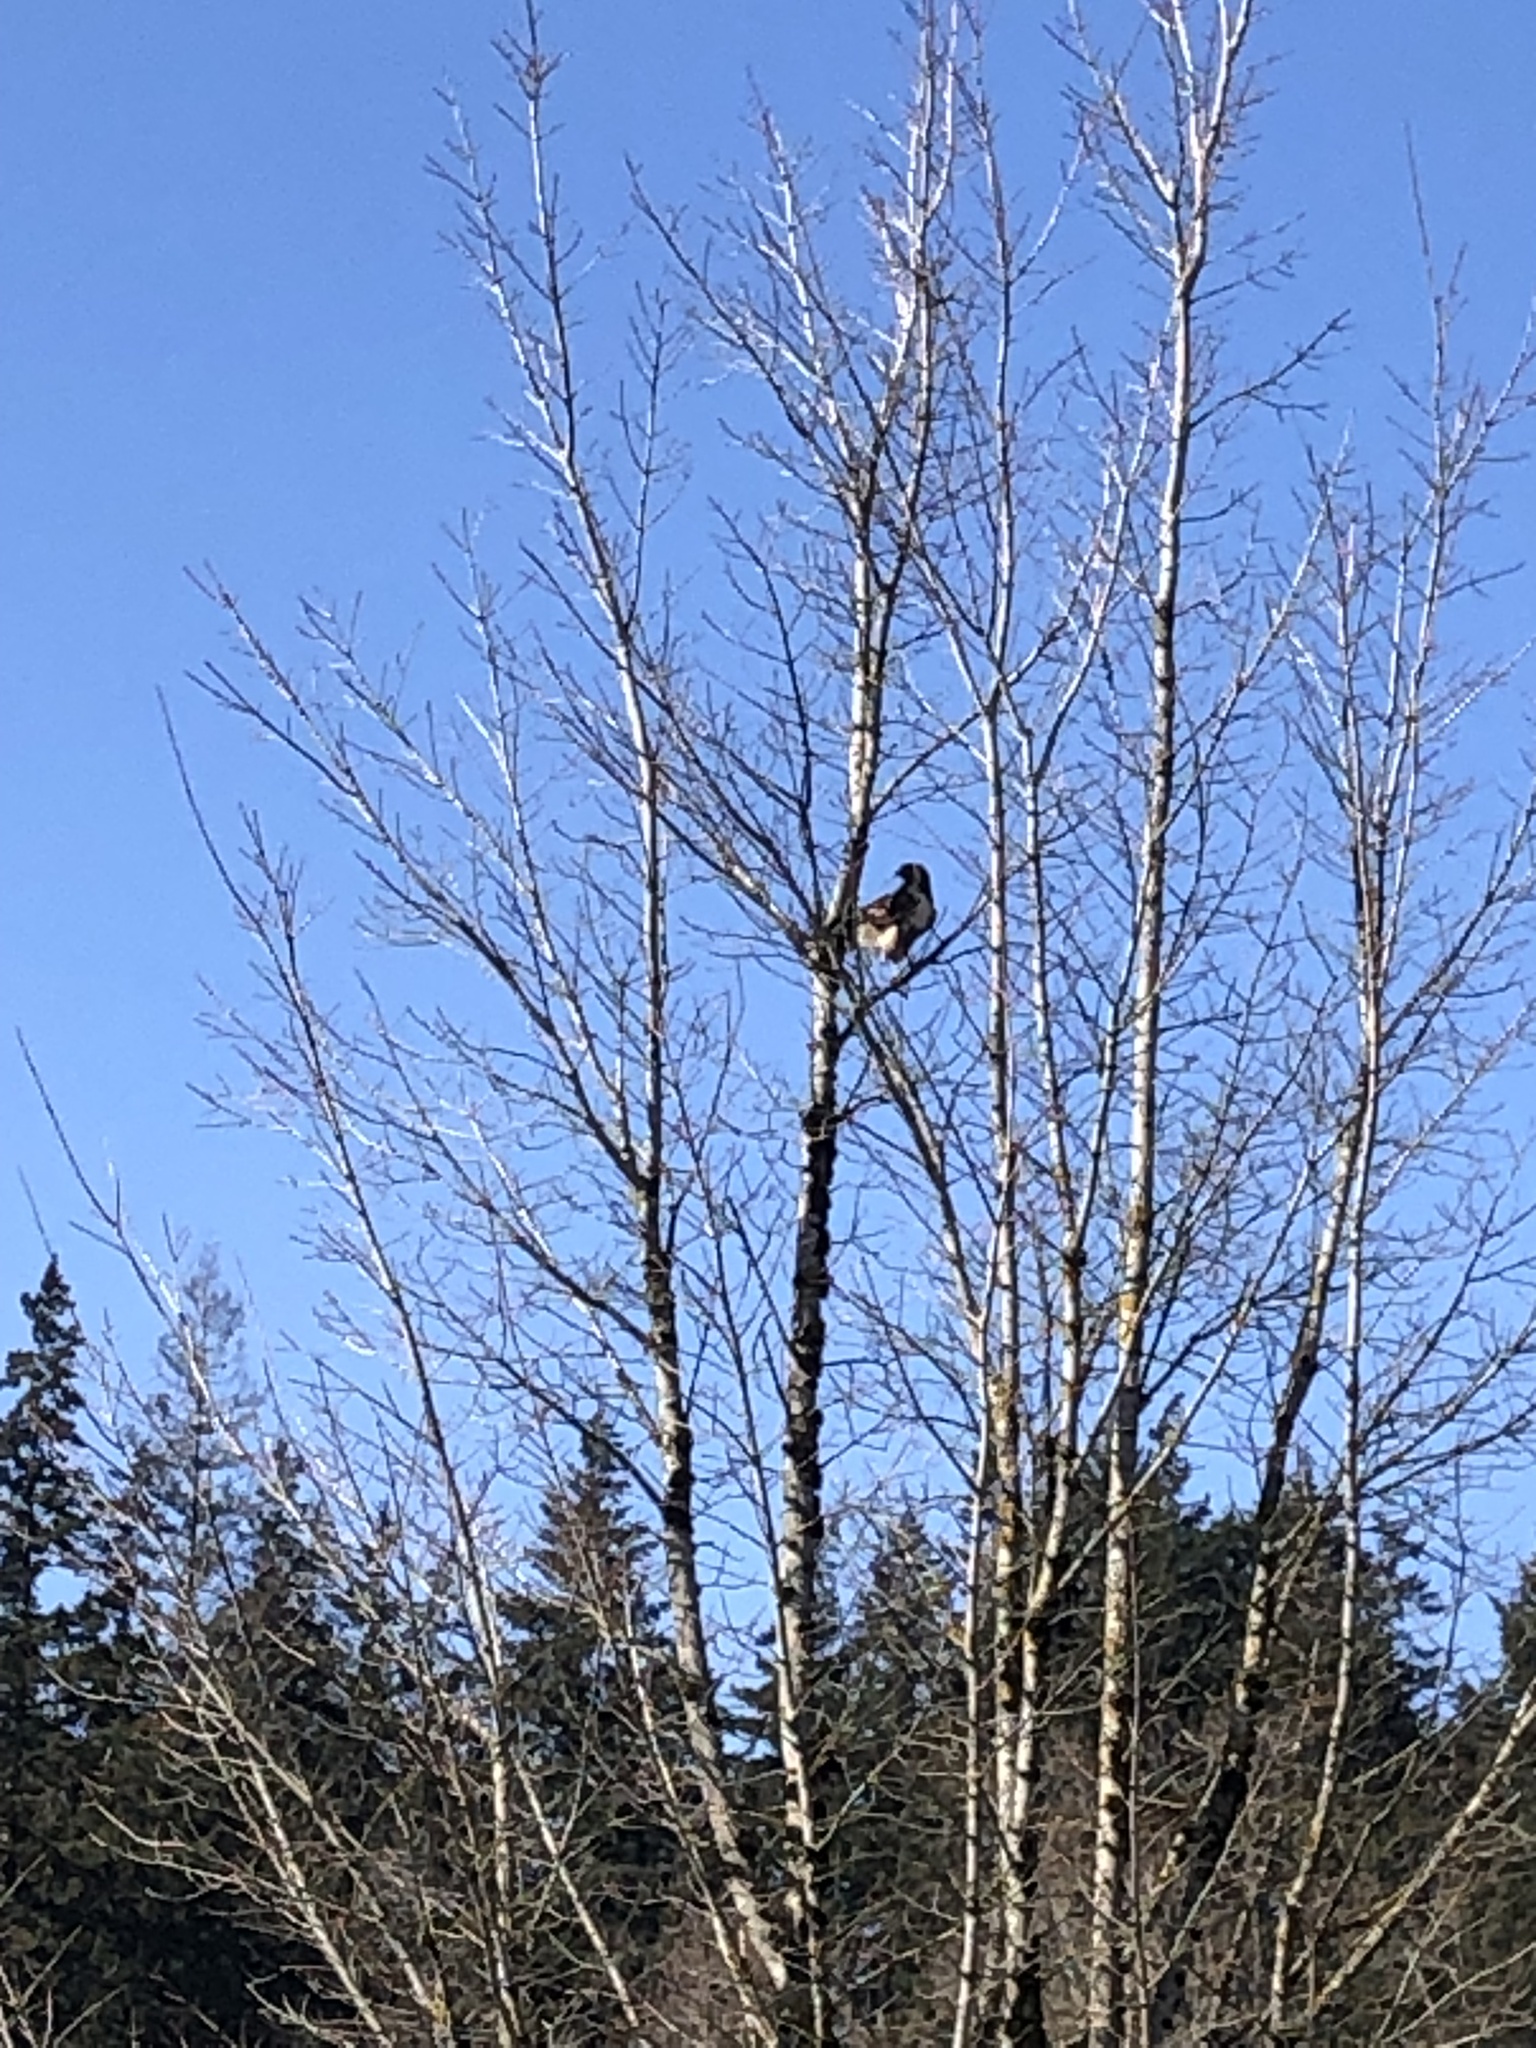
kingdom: Animalia
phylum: Chordata
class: Aves
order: Accipitriformes
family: Accipitridae
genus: Buteo
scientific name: Buteo jamaicensis
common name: Red-tailed hawk
